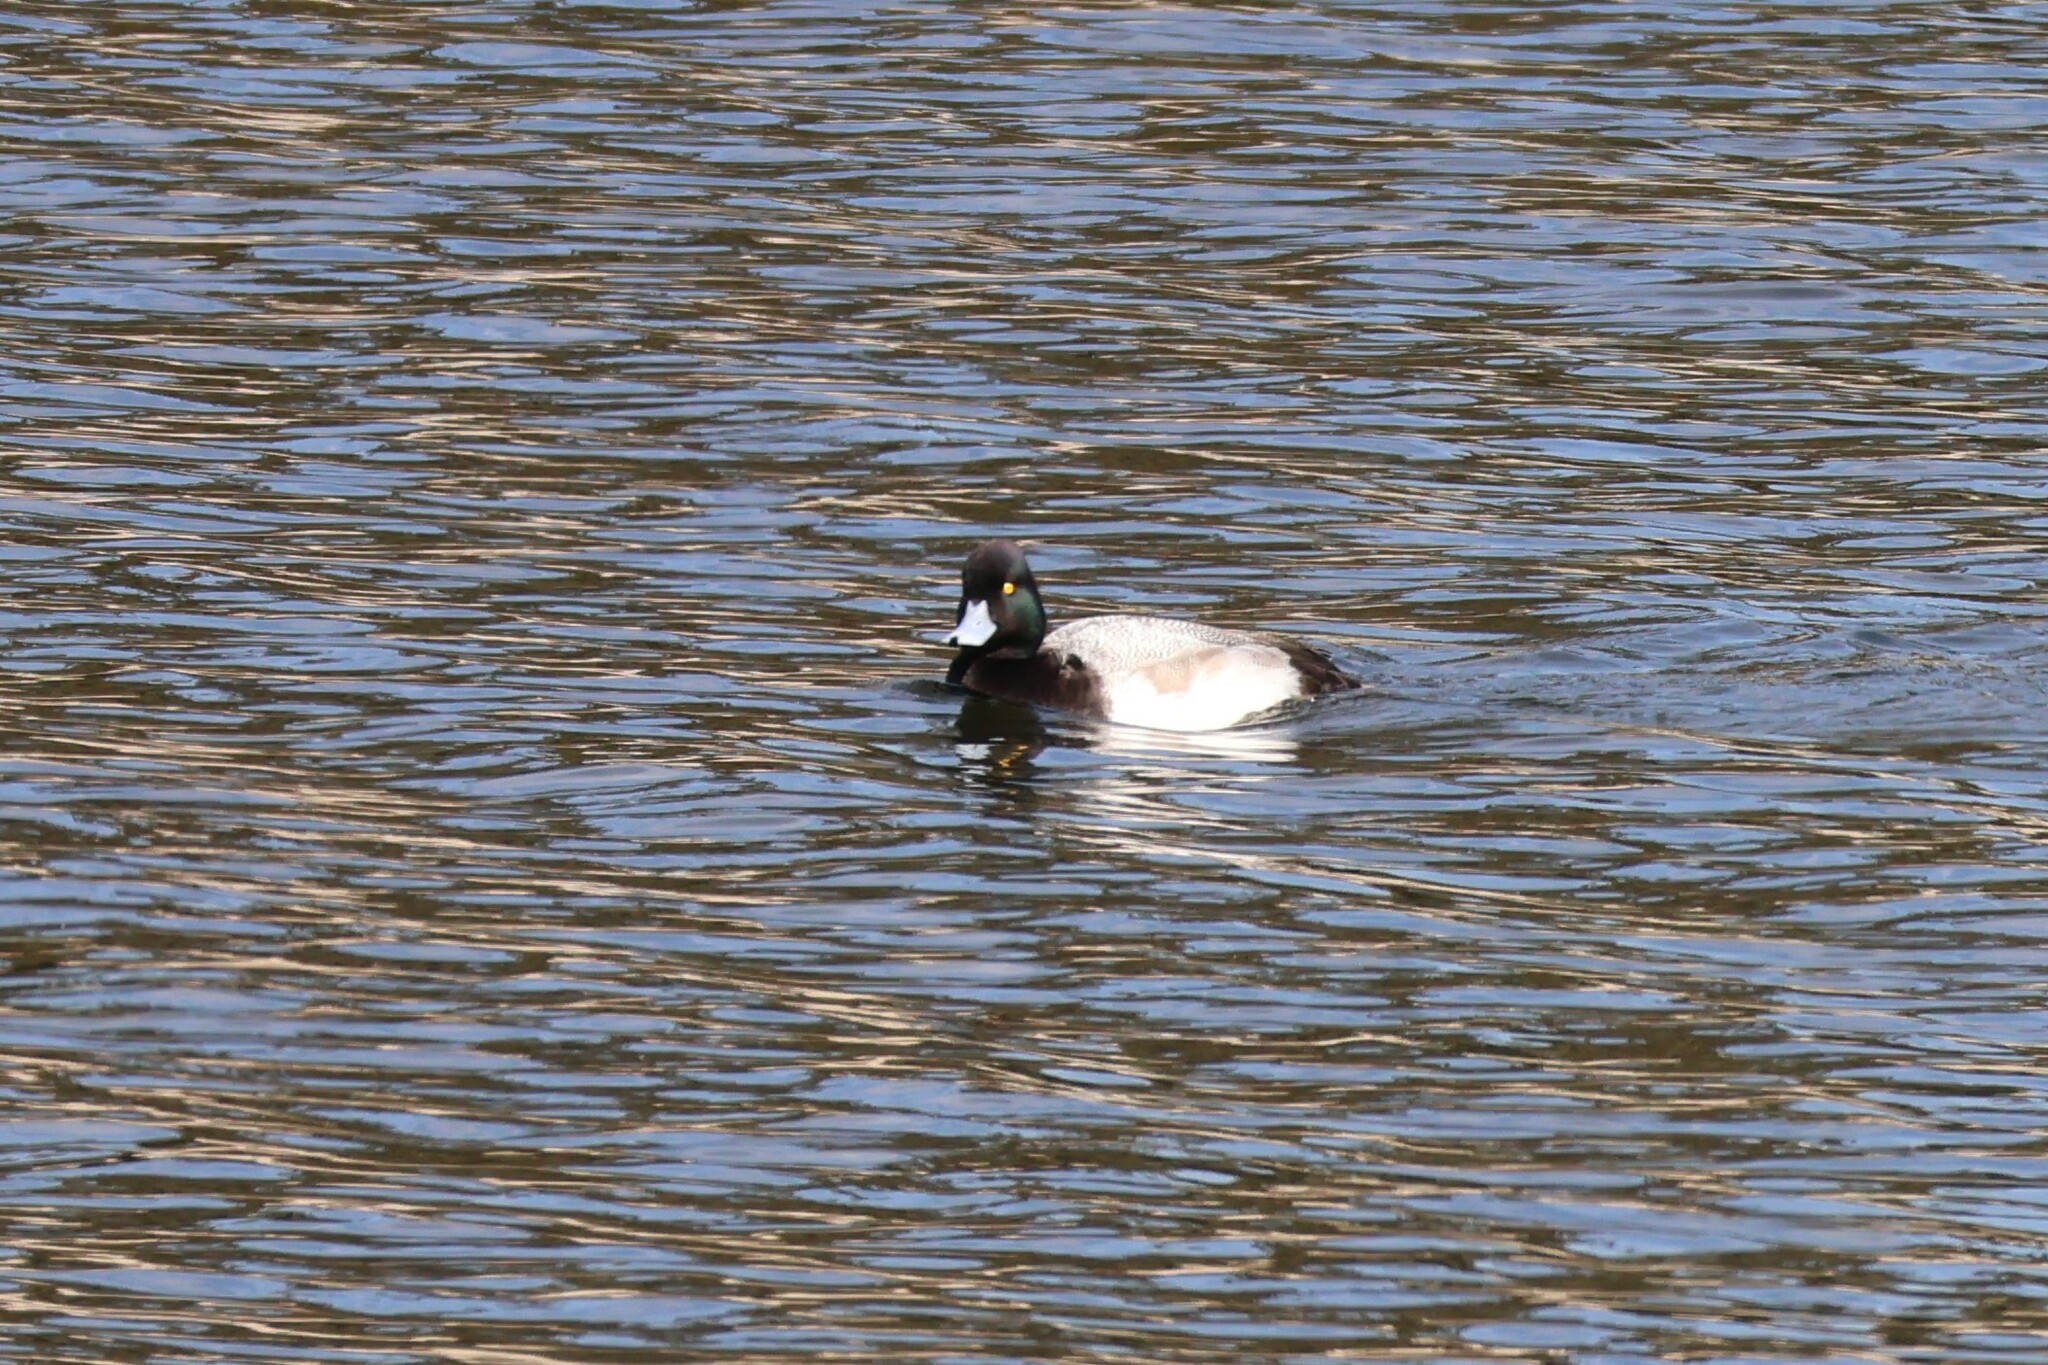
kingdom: Animalia
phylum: Chordata
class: Aves
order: Anseriformes
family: Anatidae
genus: Aythya
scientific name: Aythya affinis
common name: Lesser scaup
